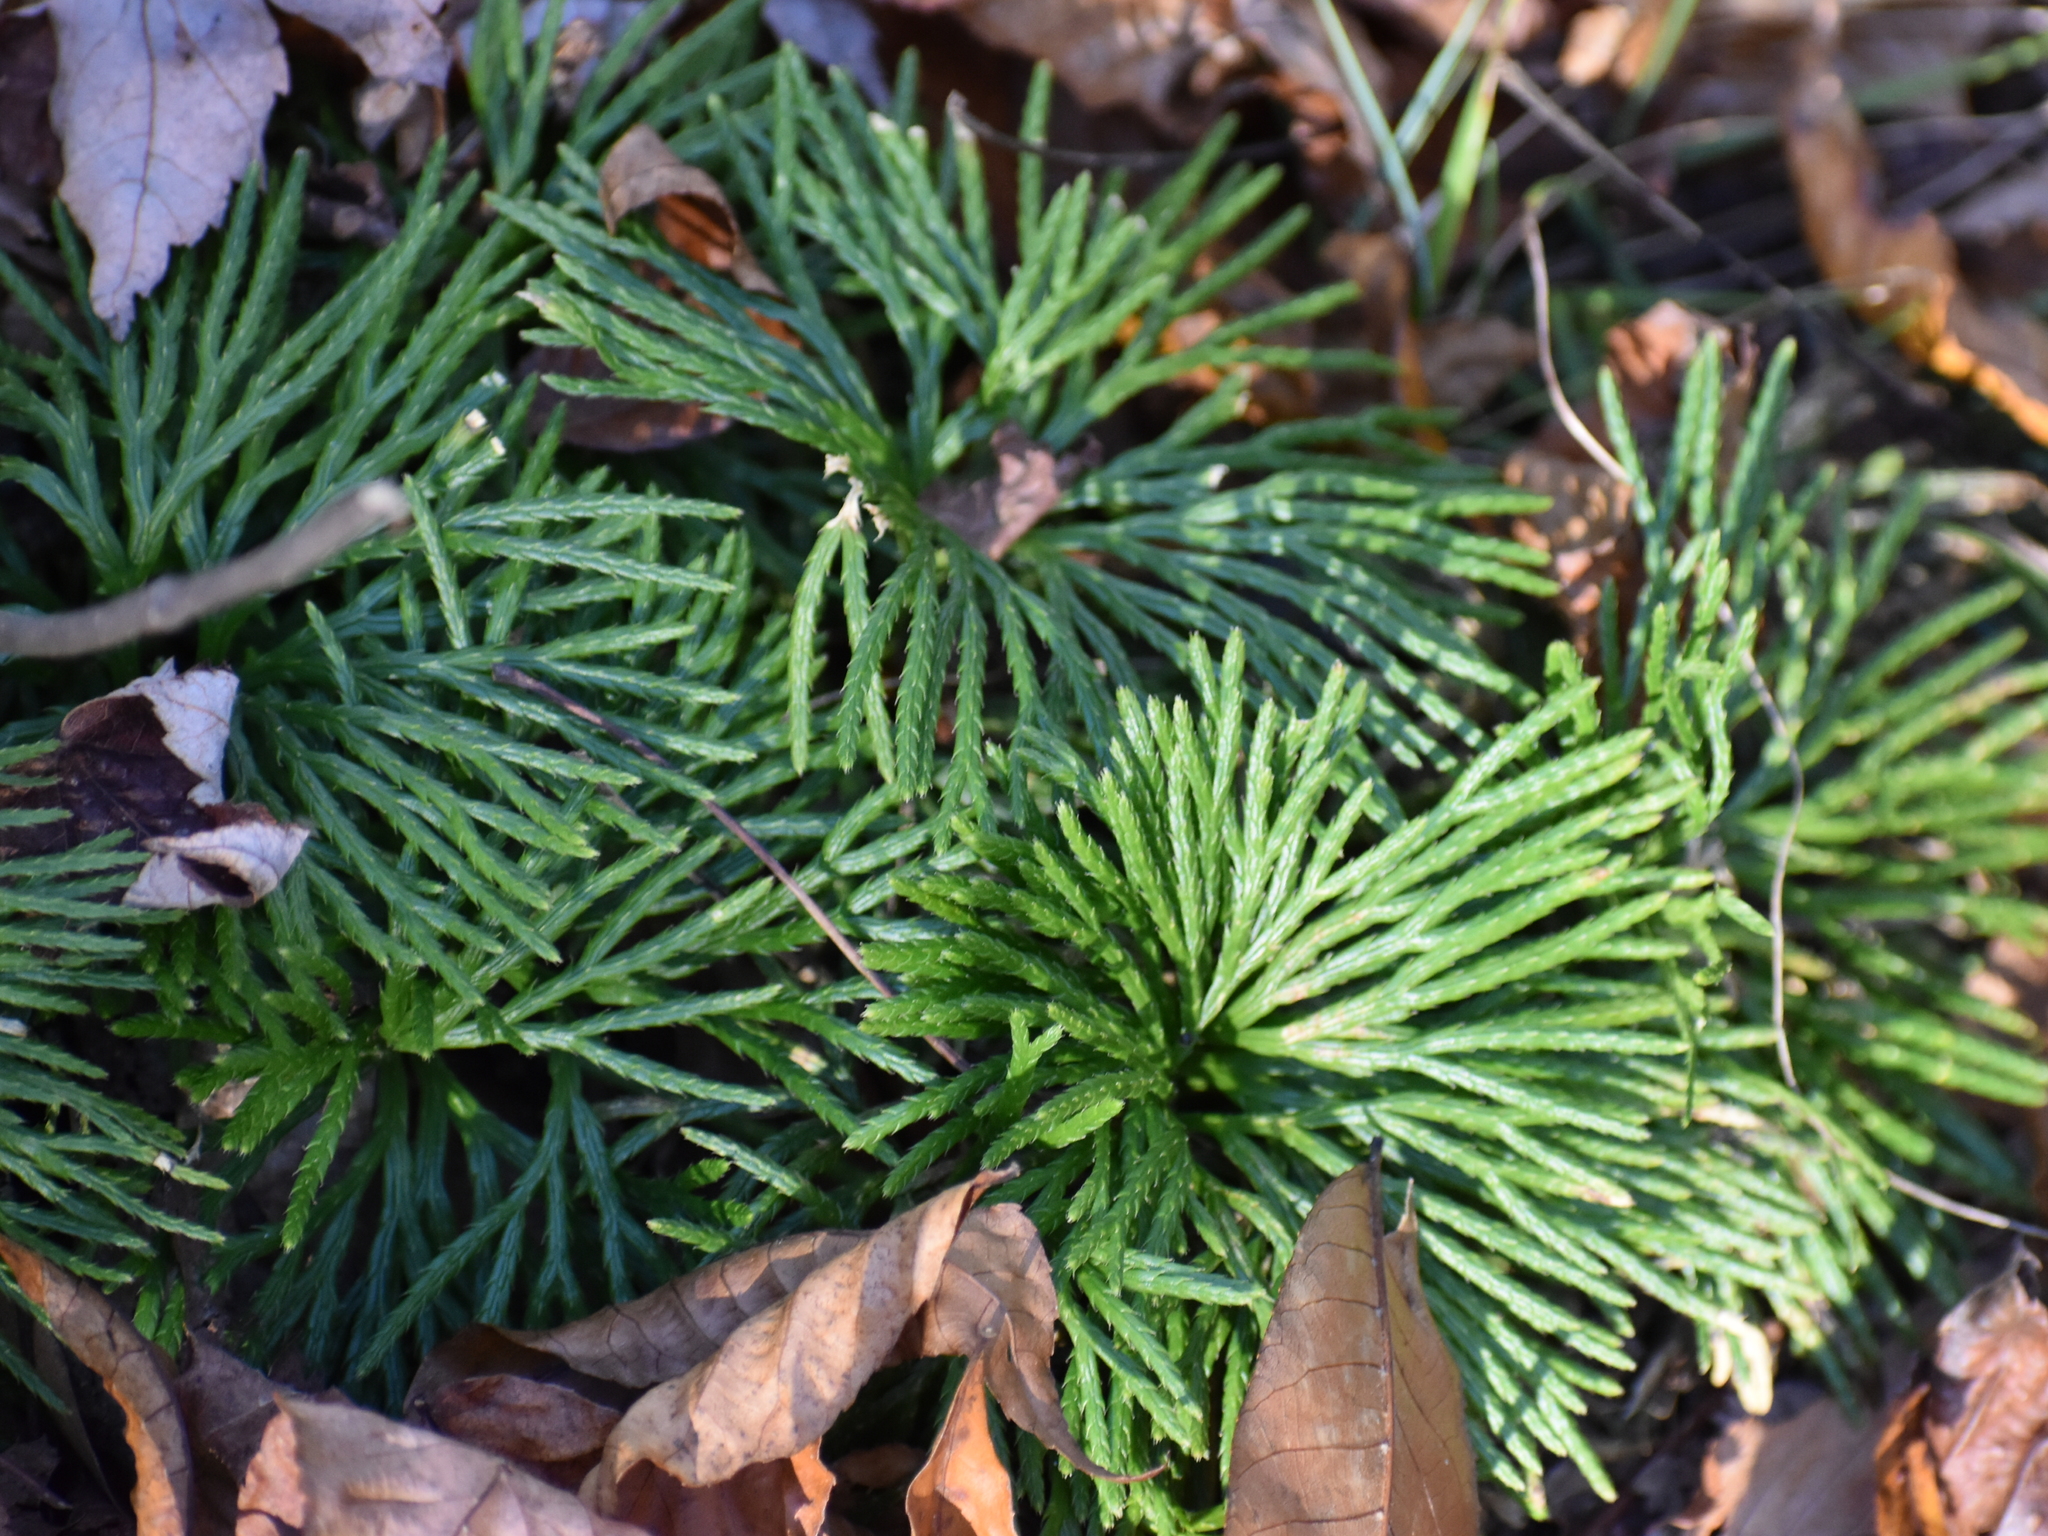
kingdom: Plantae
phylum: Tracheophyta
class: Lycopodiopsida
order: Lycopodiales
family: Lycopodiaceae
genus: Diphasiastrum
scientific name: Diphasiastrum digitatum
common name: Southern running-pine
